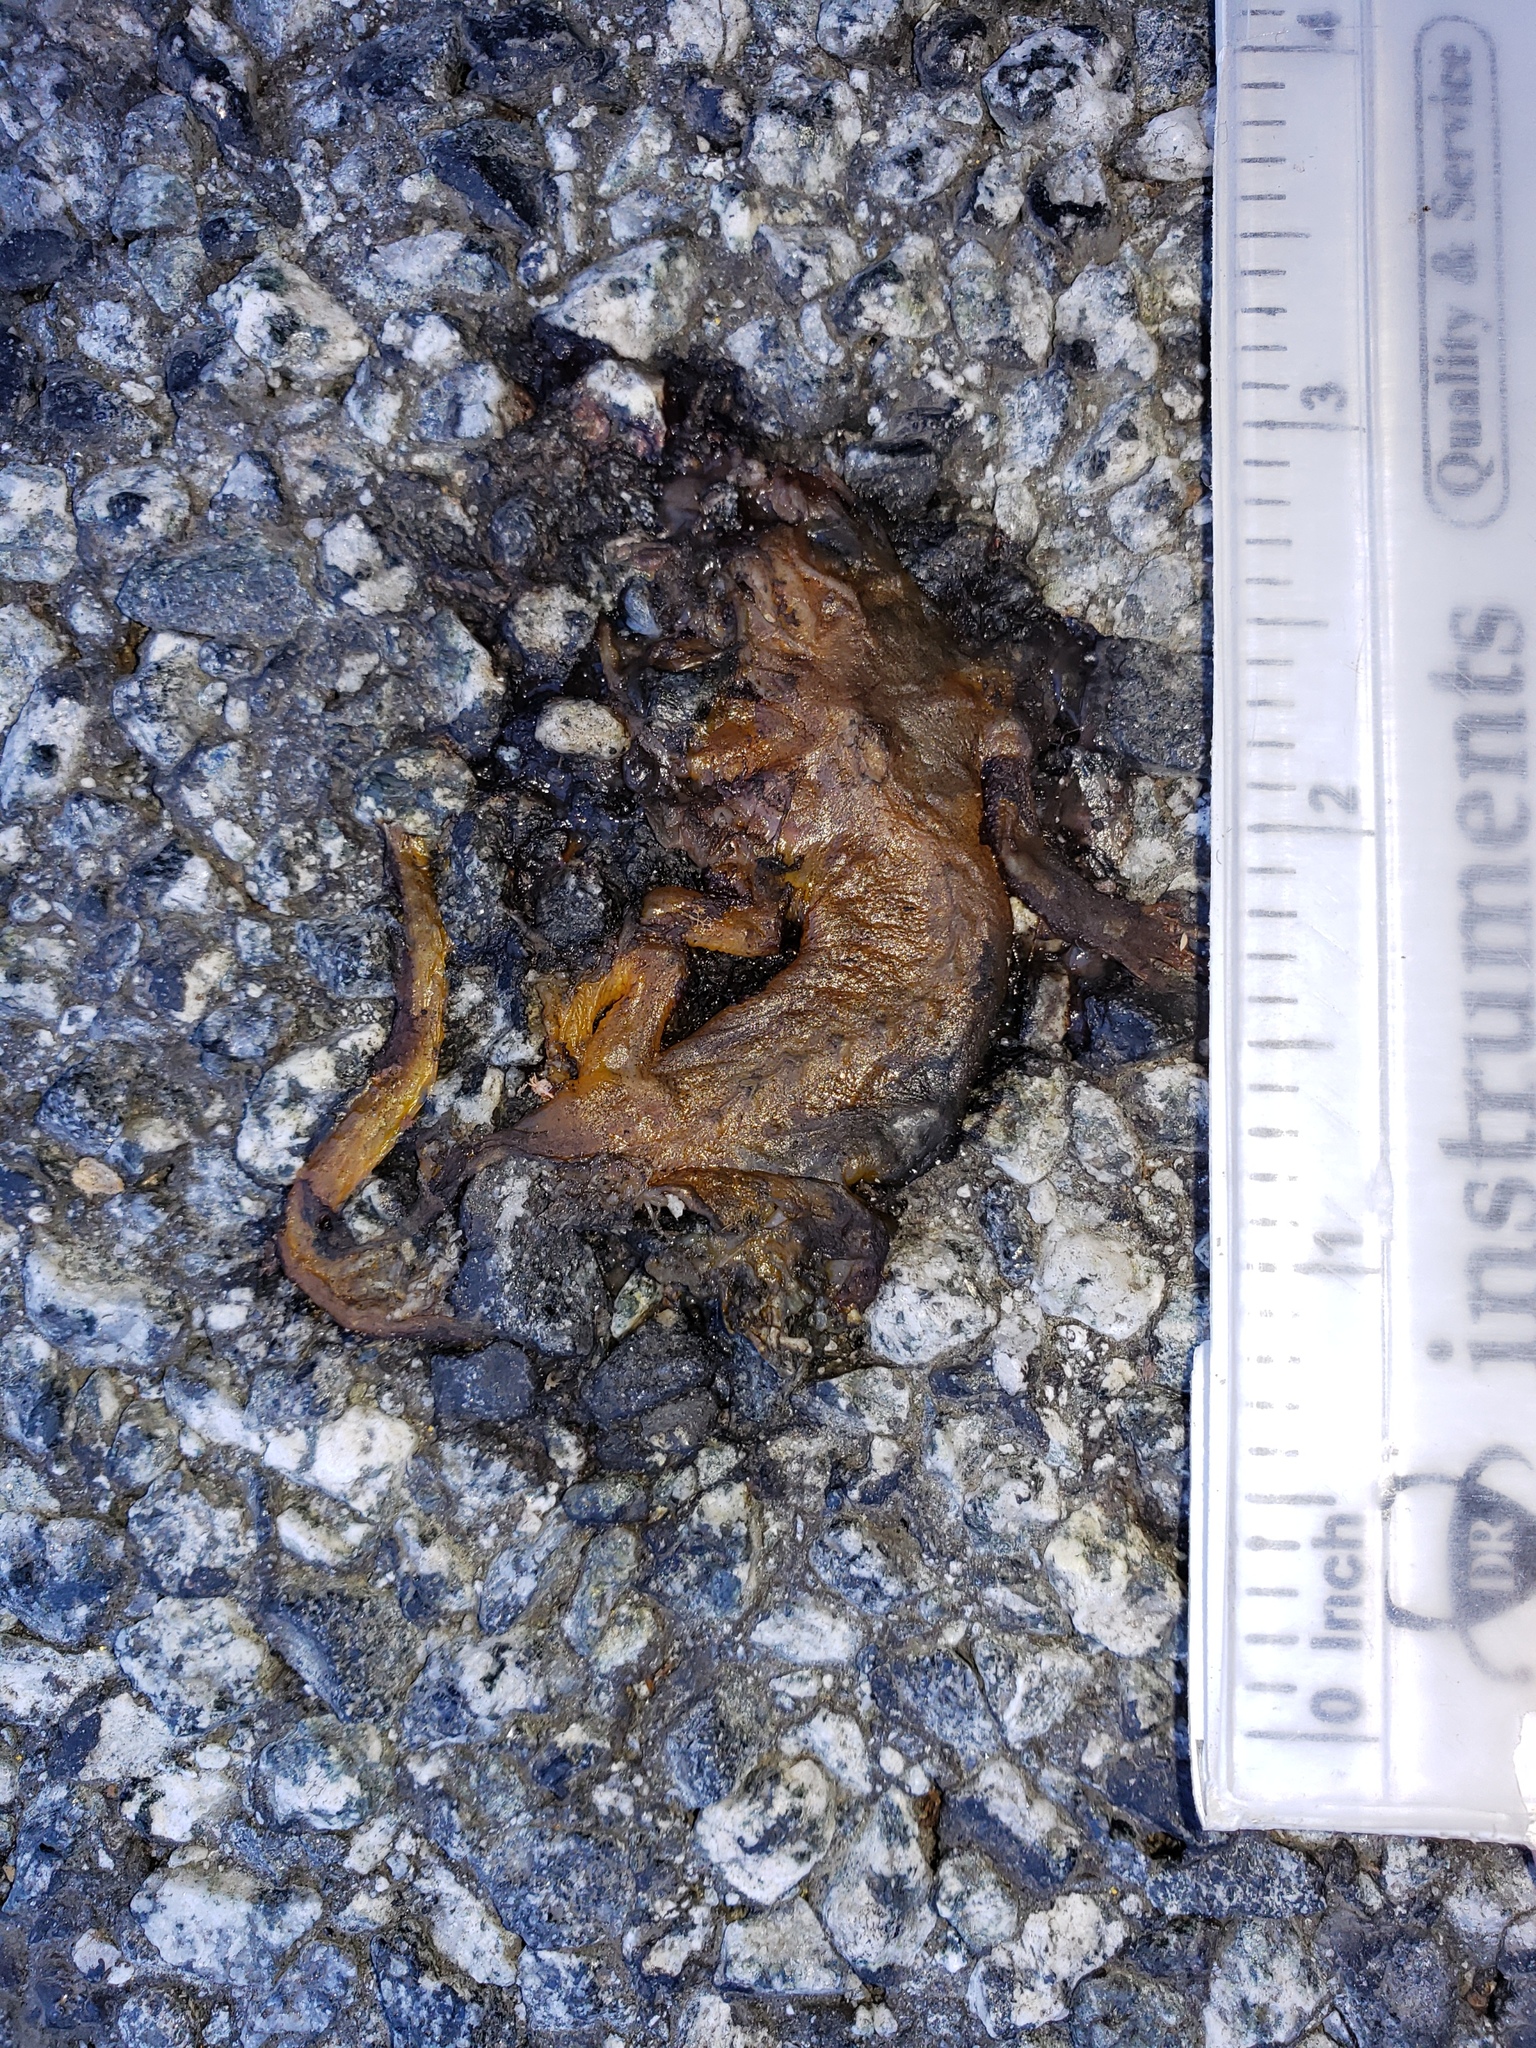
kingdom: Animalia
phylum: Chordata
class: Amphibia
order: Caudata
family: Salamandridae
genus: Taricha
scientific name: Taricha
